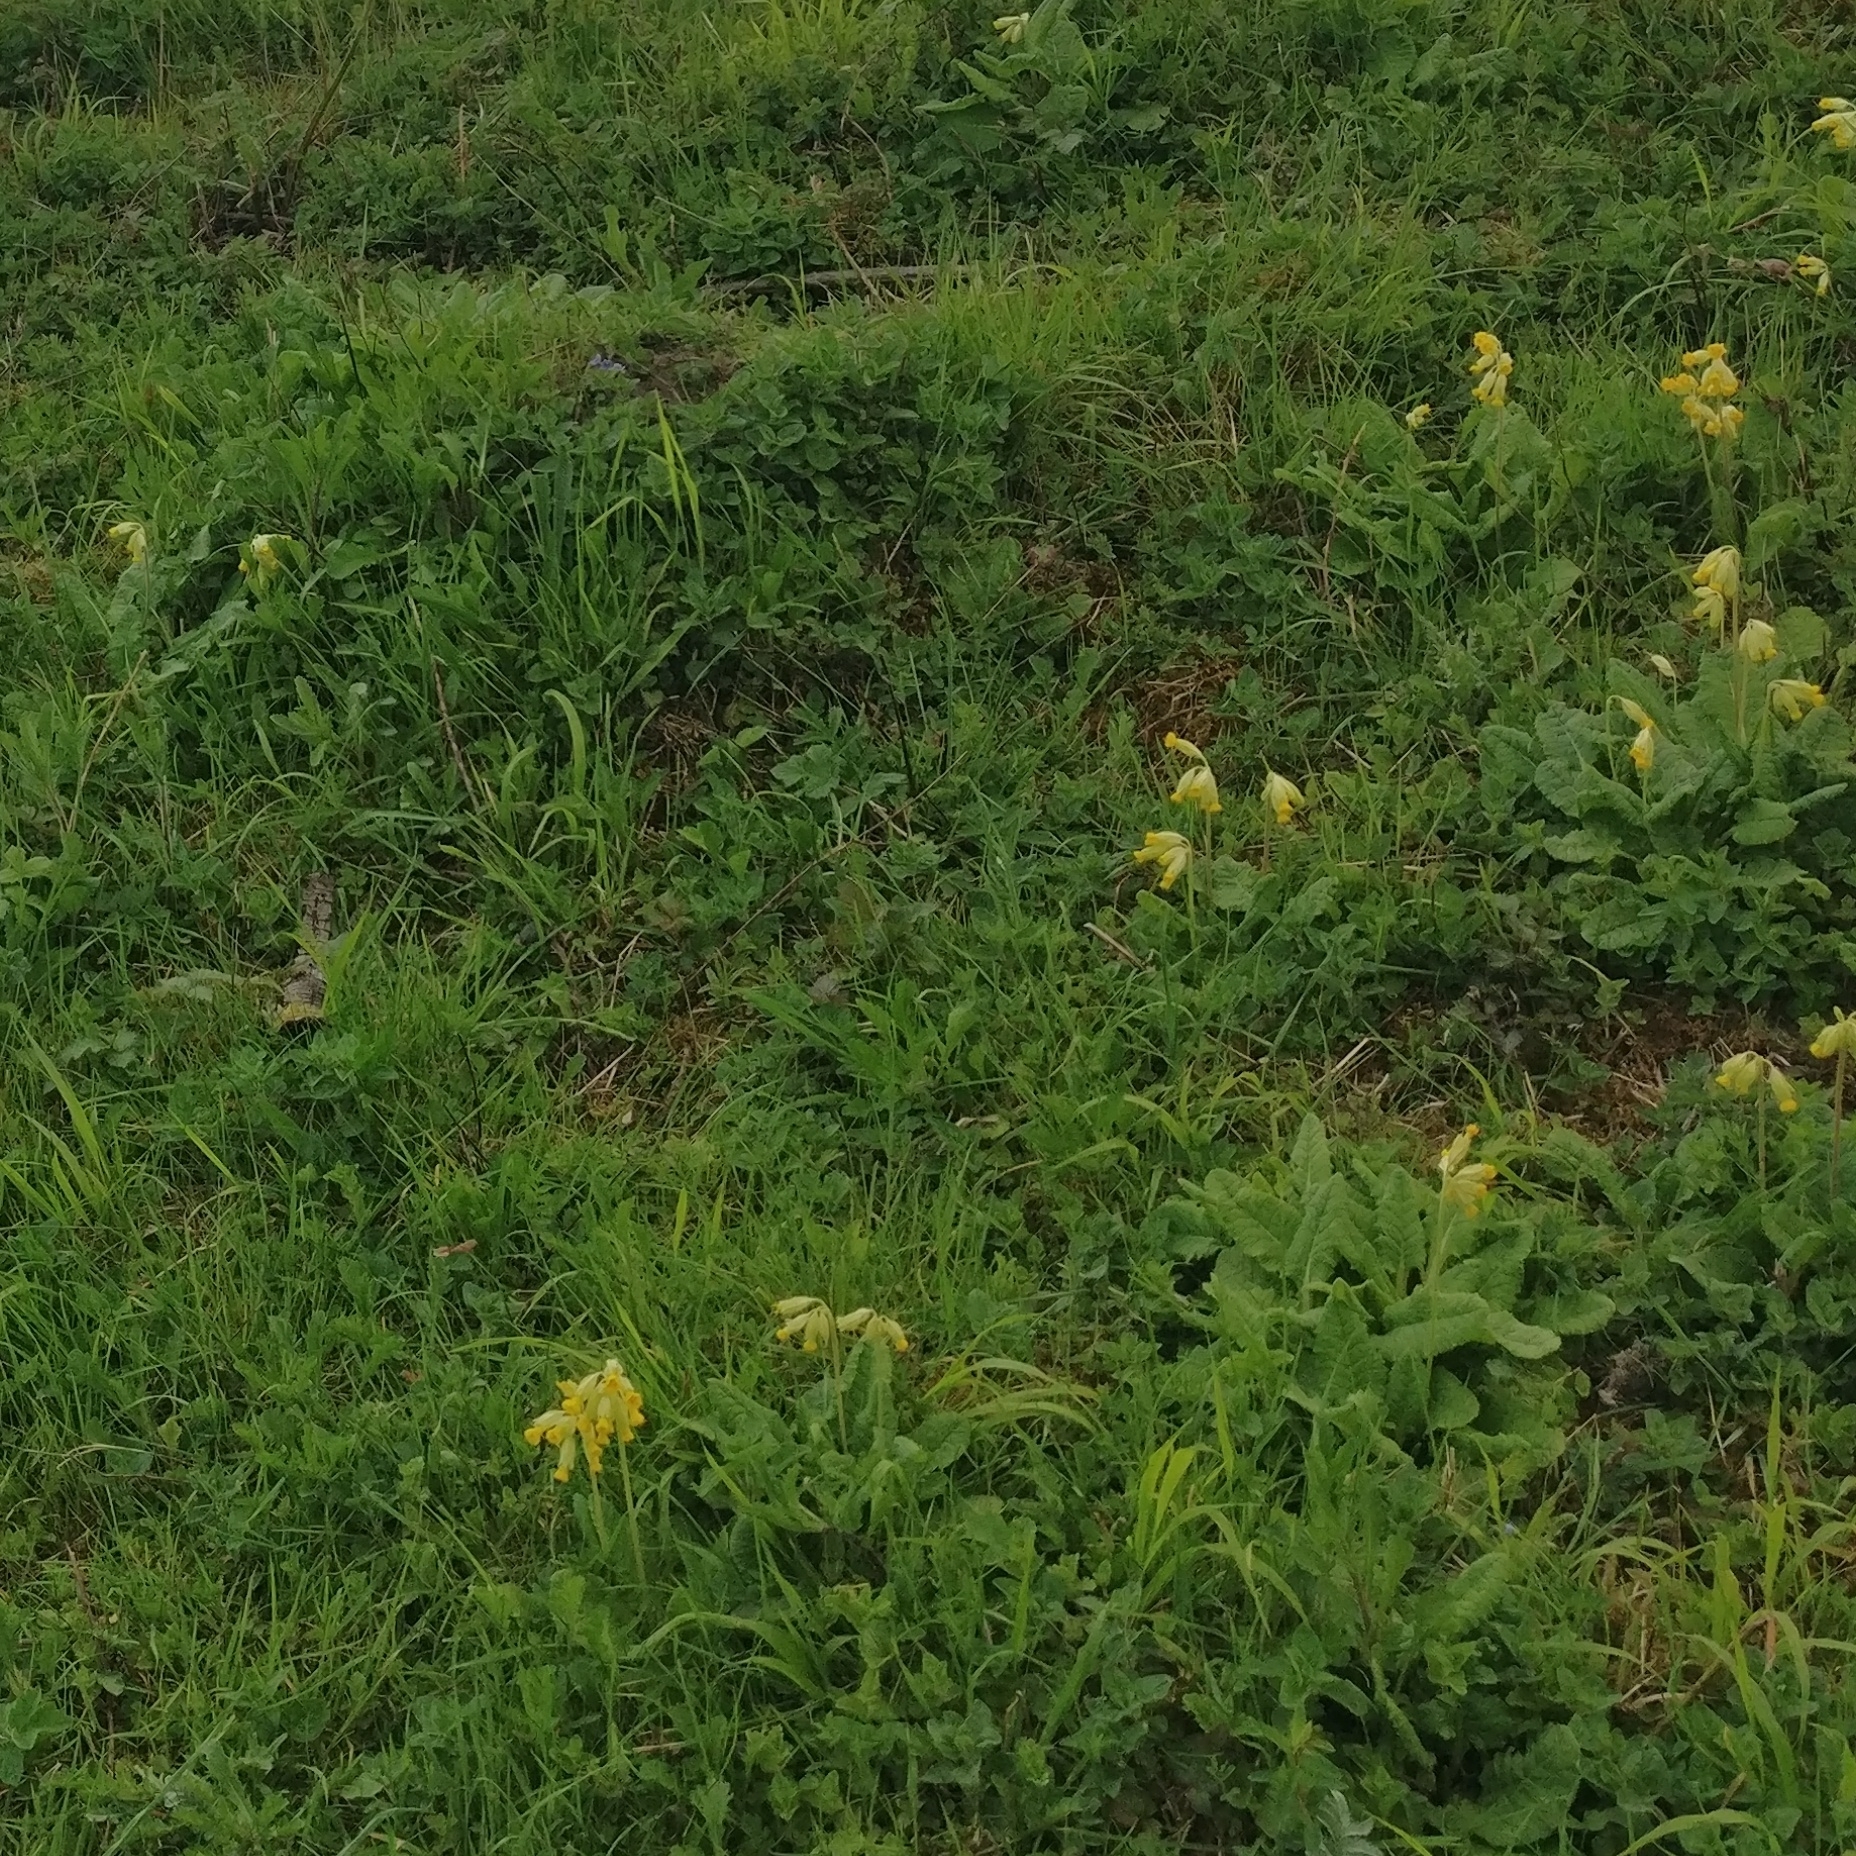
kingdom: Plantae
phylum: Tracheophyta
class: Magnoliopsida
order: Ericales
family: Primulaceae
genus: Primula
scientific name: Primula veris
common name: Cowslip
